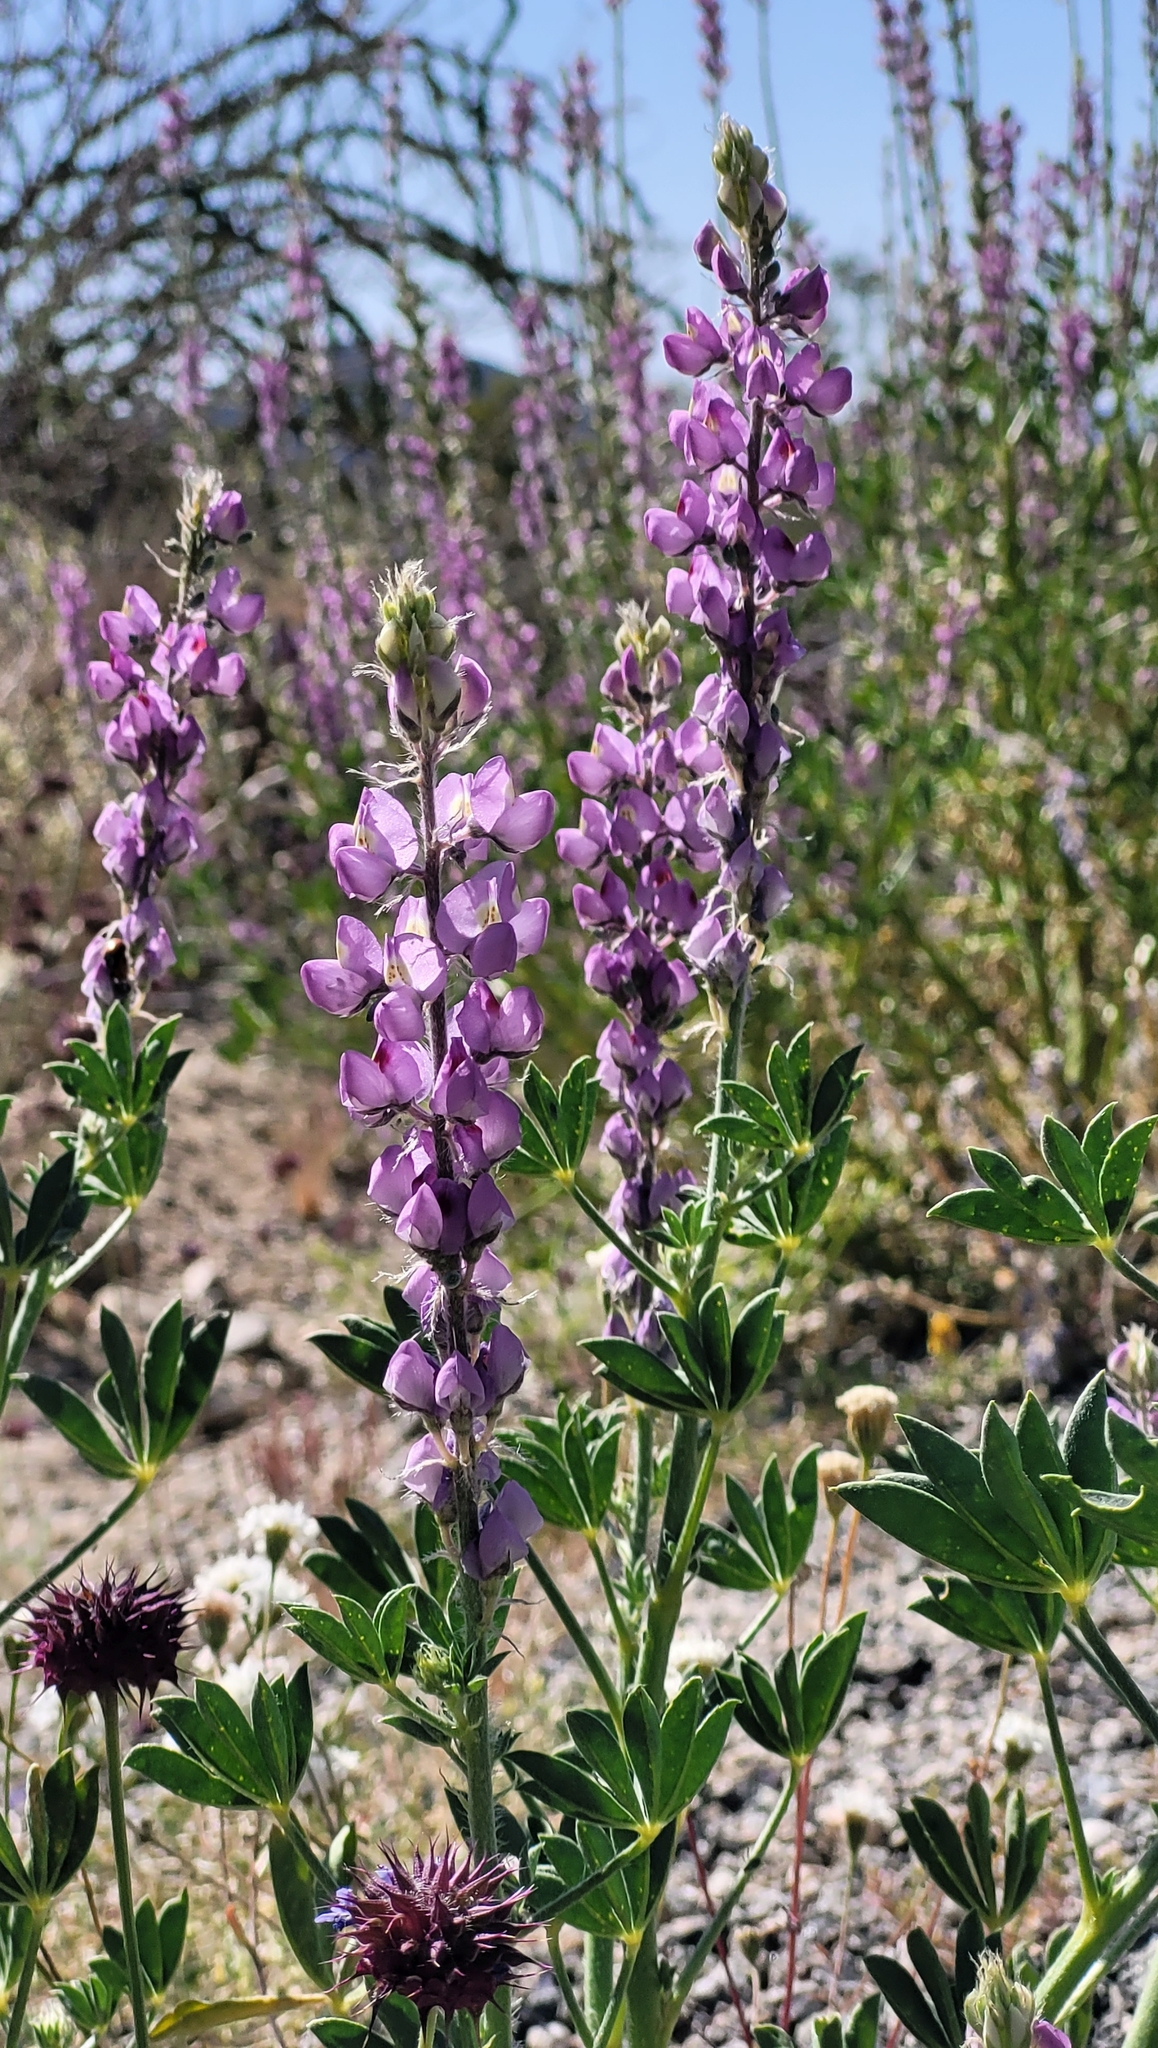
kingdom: Plantae
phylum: Tracheophyta
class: Magnoliopsida
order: Fabales
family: Fabaceae
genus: Lupinus
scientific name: Lupinus arizonicus
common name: Arizona lupine
